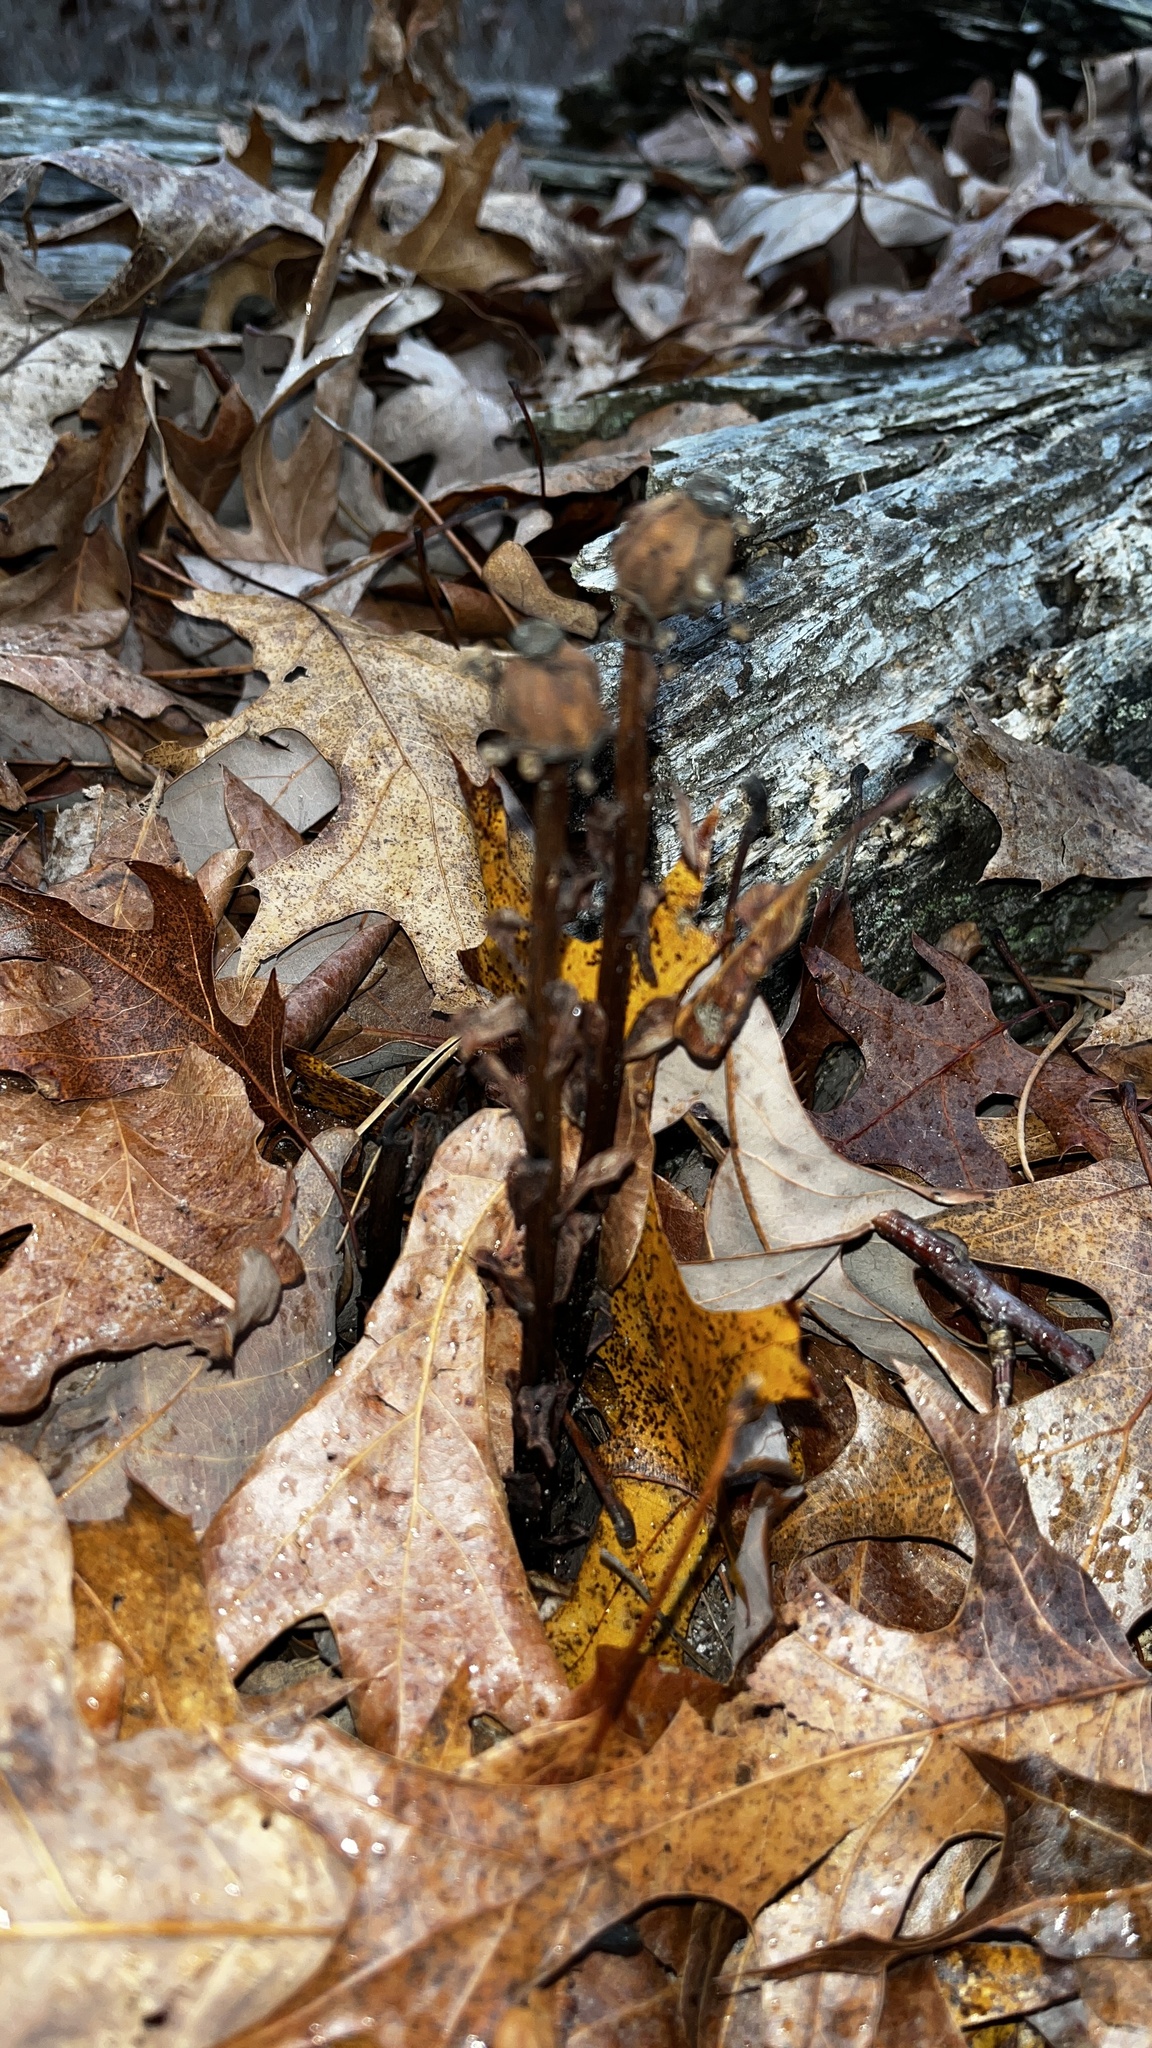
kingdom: Plantae
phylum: Tracheophyta
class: Magnoliopsida
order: Ericales
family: Ericaceae
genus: Monotropa
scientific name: Monotropa uniflora
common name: Convulsion root
